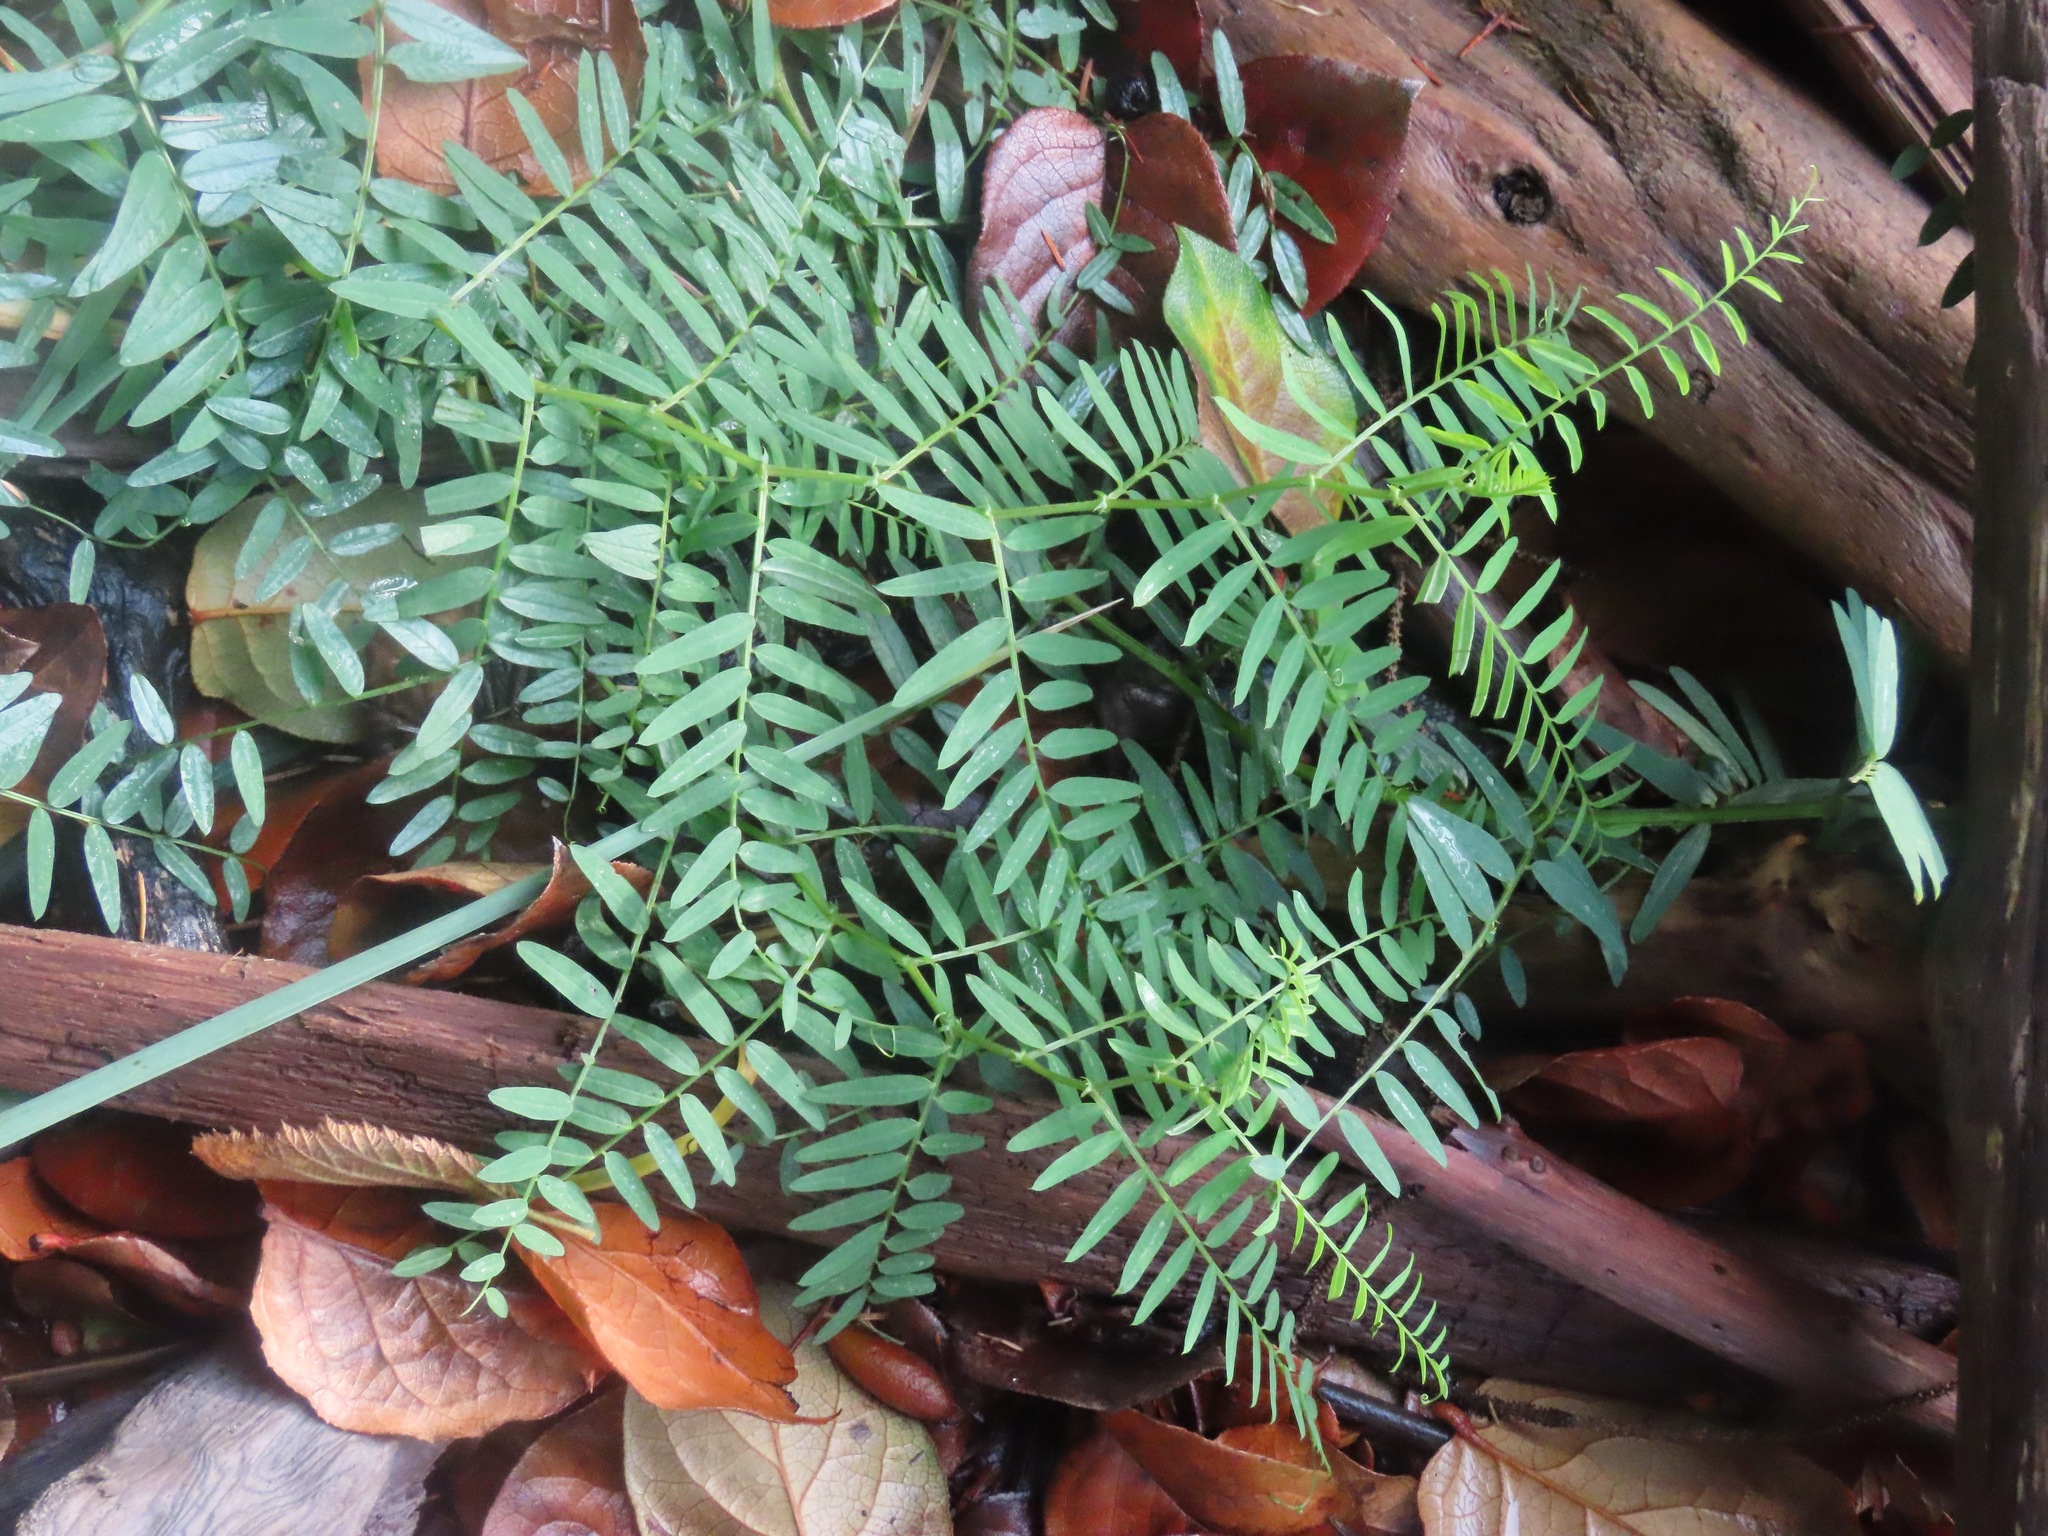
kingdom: Plantae
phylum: Tracheophyta
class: Magnoliopsida
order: Fabales
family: Fabaceae
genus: Vicia
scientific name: Vicia
